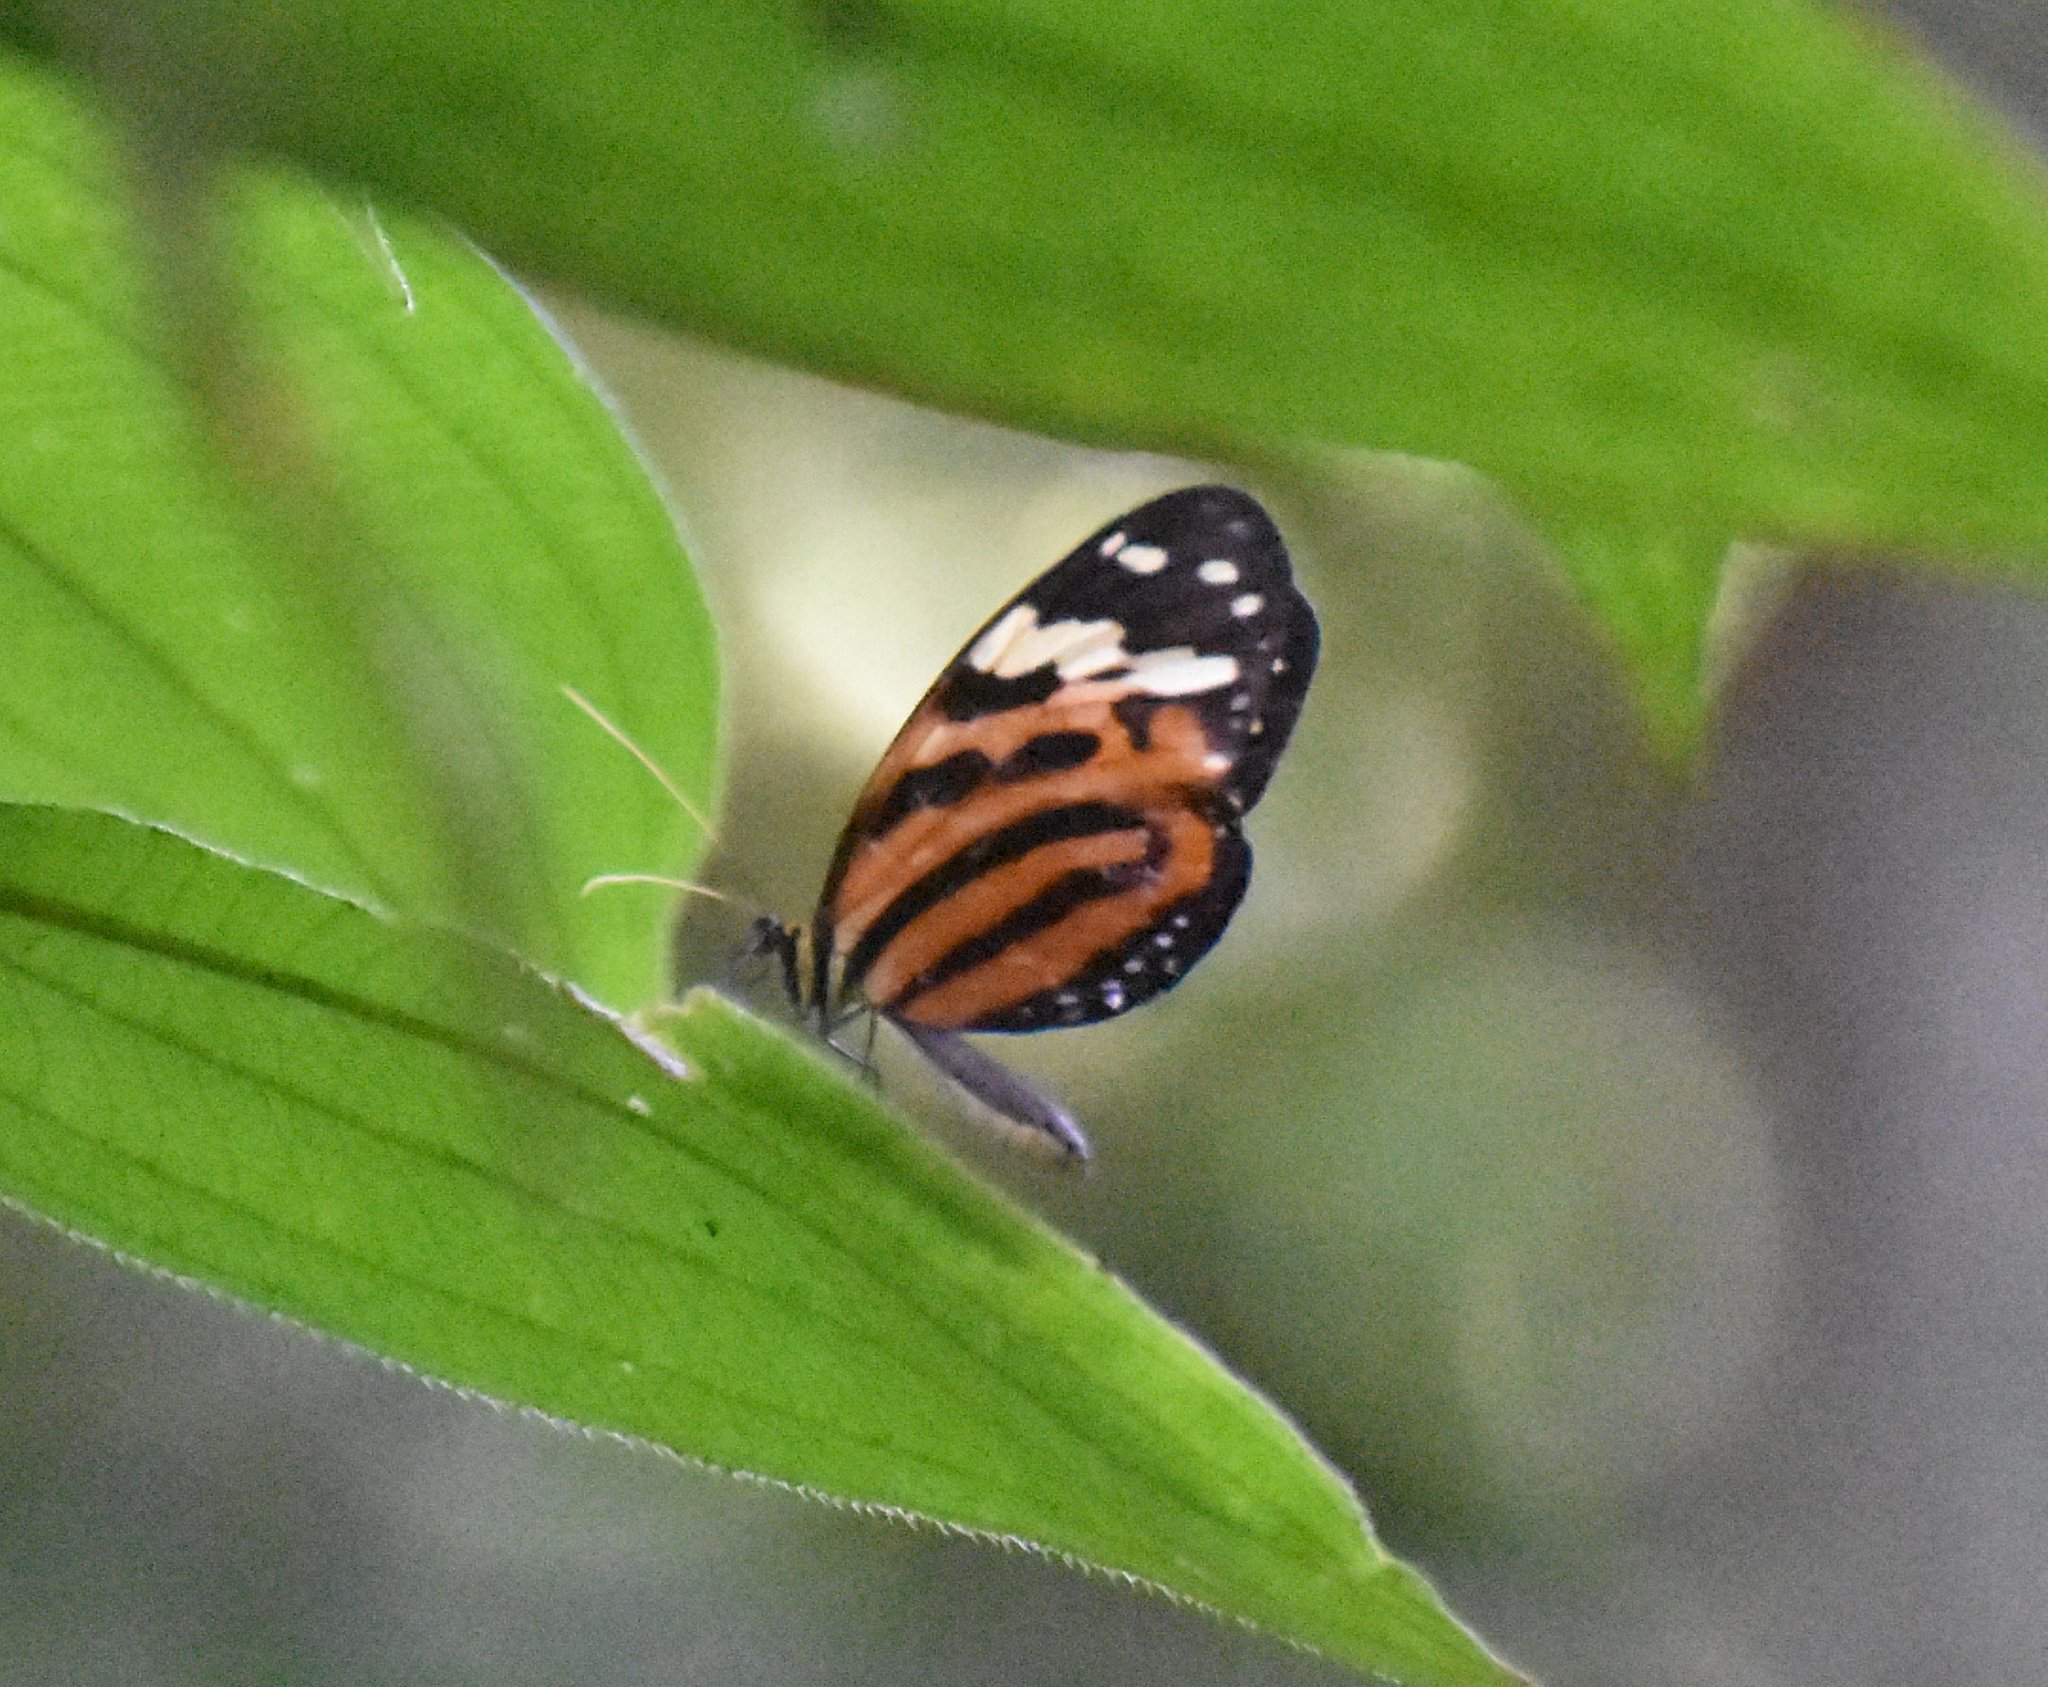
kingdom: Animalia
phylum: Arthropoda
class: Insecta
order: Lepidoptera
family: Nymphalidae
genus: Melinaea
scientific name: Melinaea lilis
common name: Mimic tigerwing
